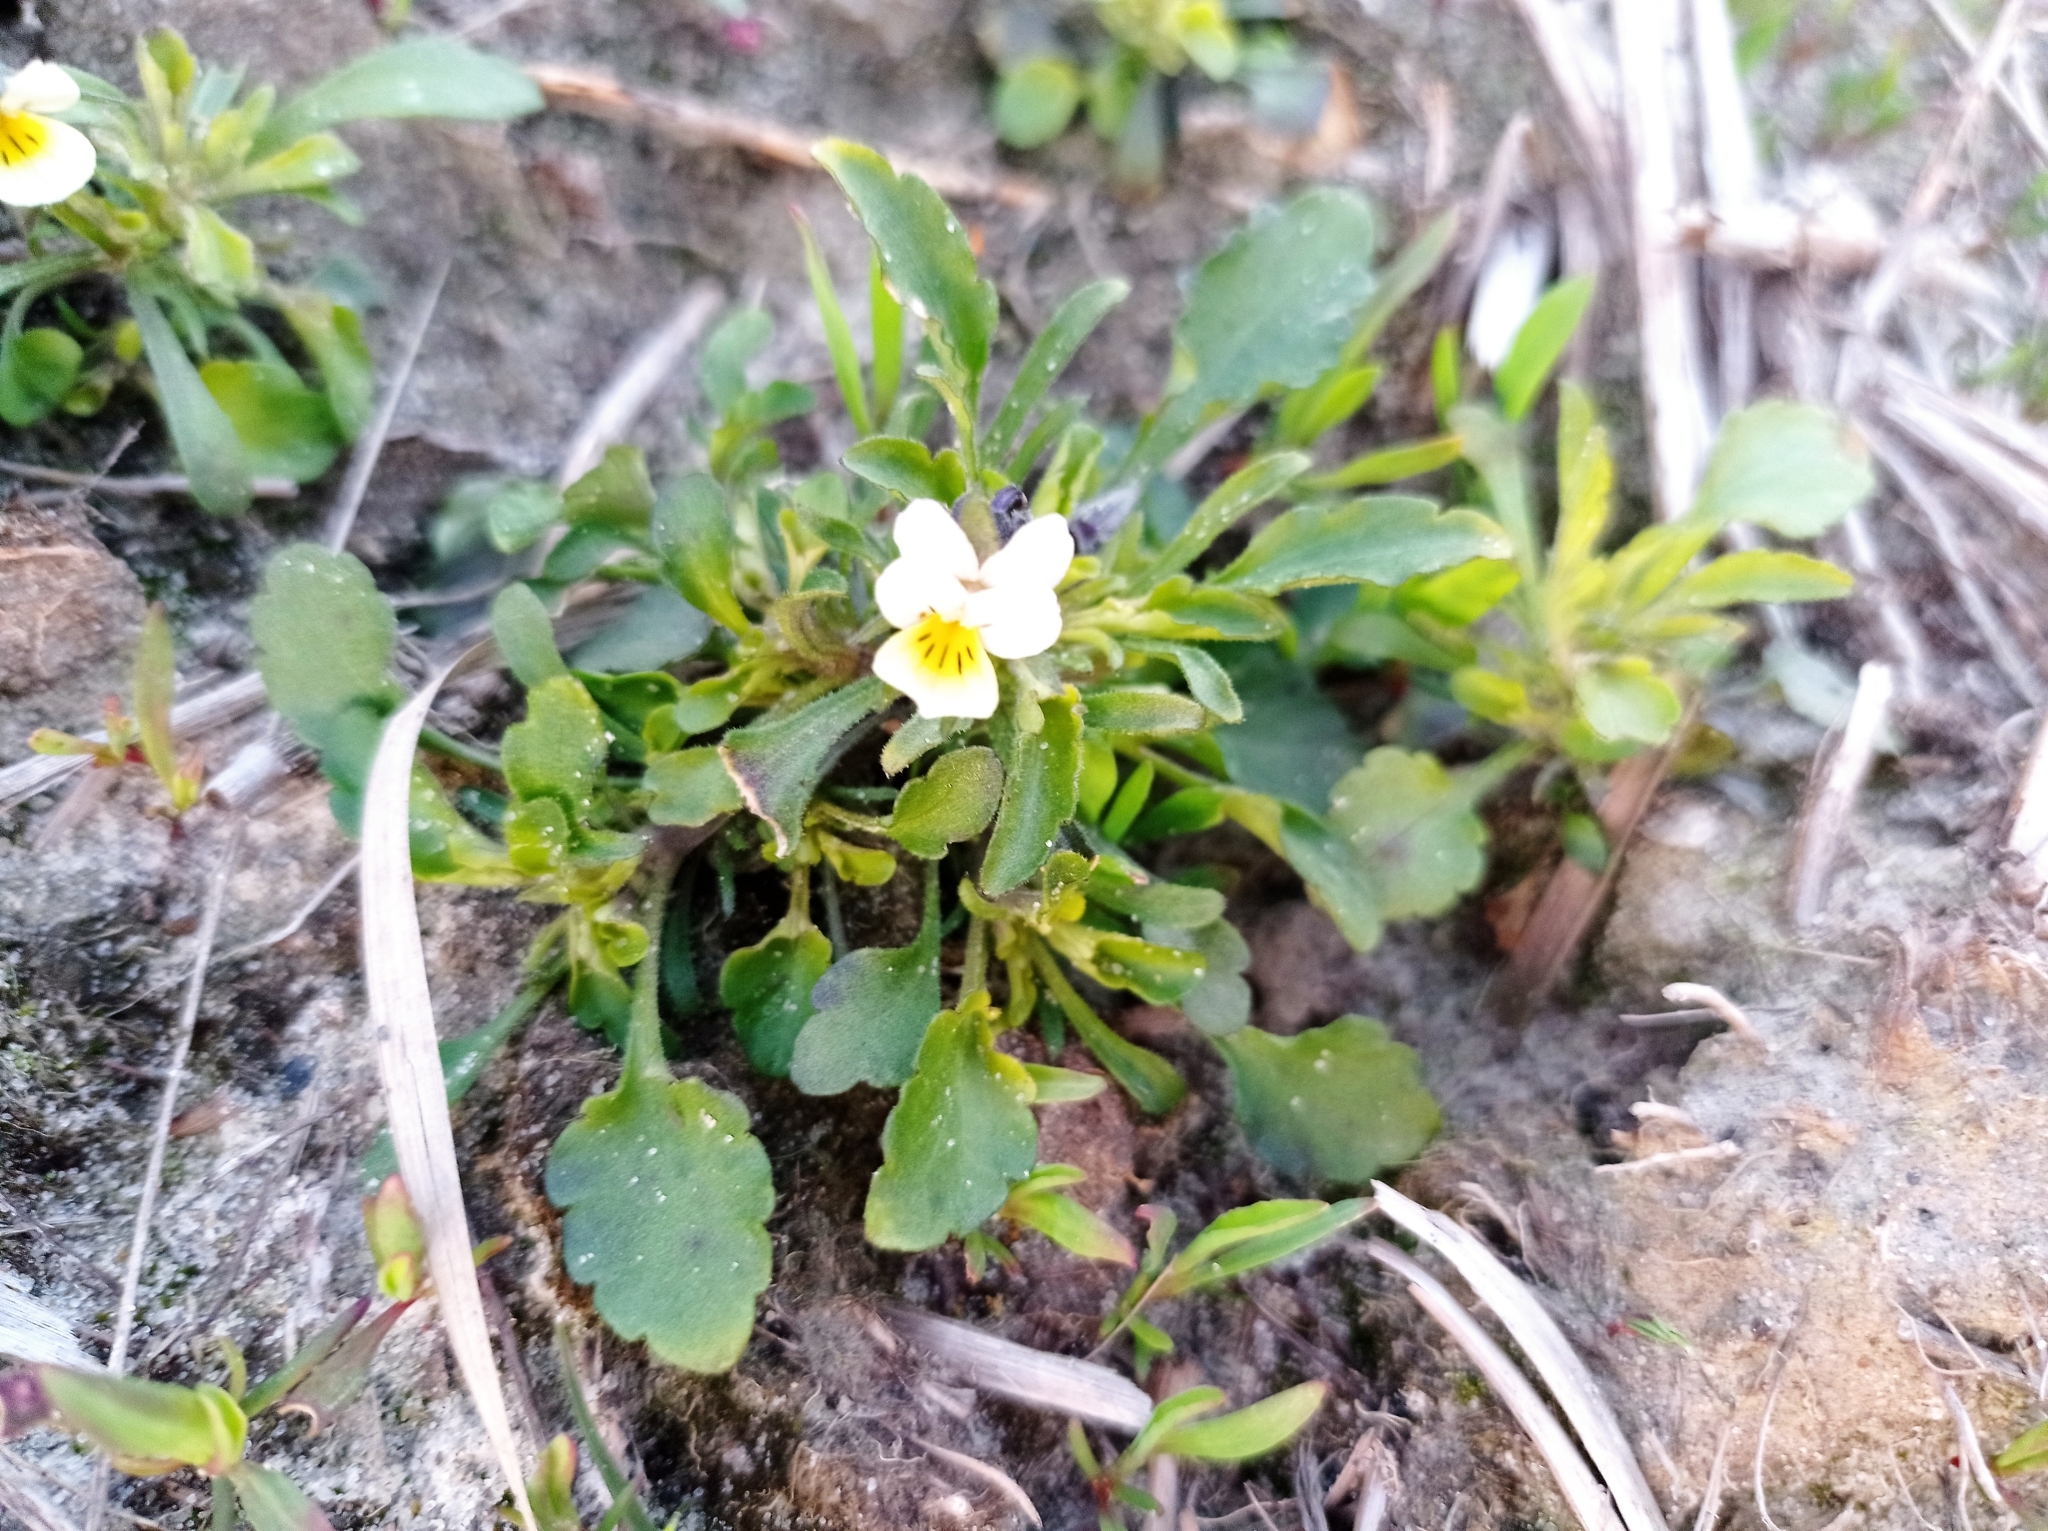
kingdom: Plantae
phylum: Tracheophyta
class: Magnoliopsida
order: Malpighiales
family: Violaceae
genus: Viola
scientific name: Viola arvensis
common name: Field pansy
